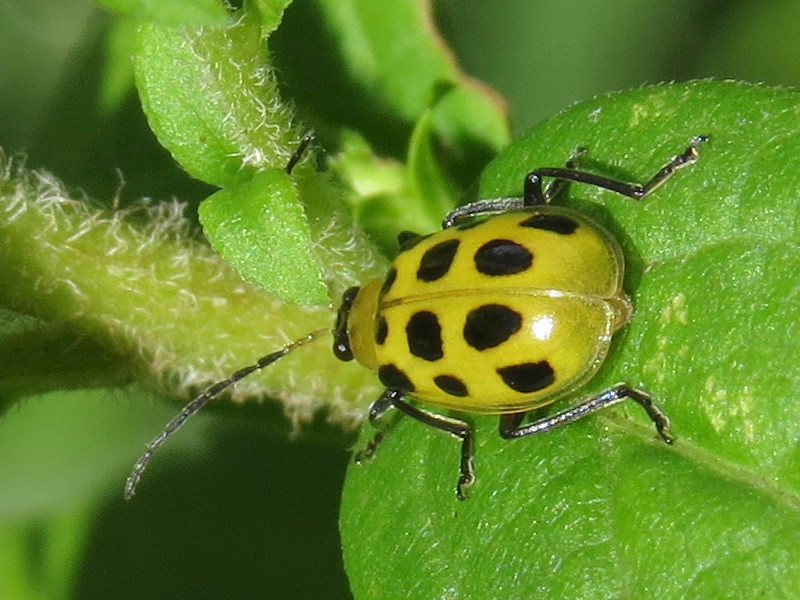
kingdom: Animalia
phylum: Arthropoda
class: Insecta
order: Coleoptera
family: Chrysomelidae
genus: Diabrotica
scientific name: Diabrotica undecimpunctata
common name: Spotted cucumber beetle
